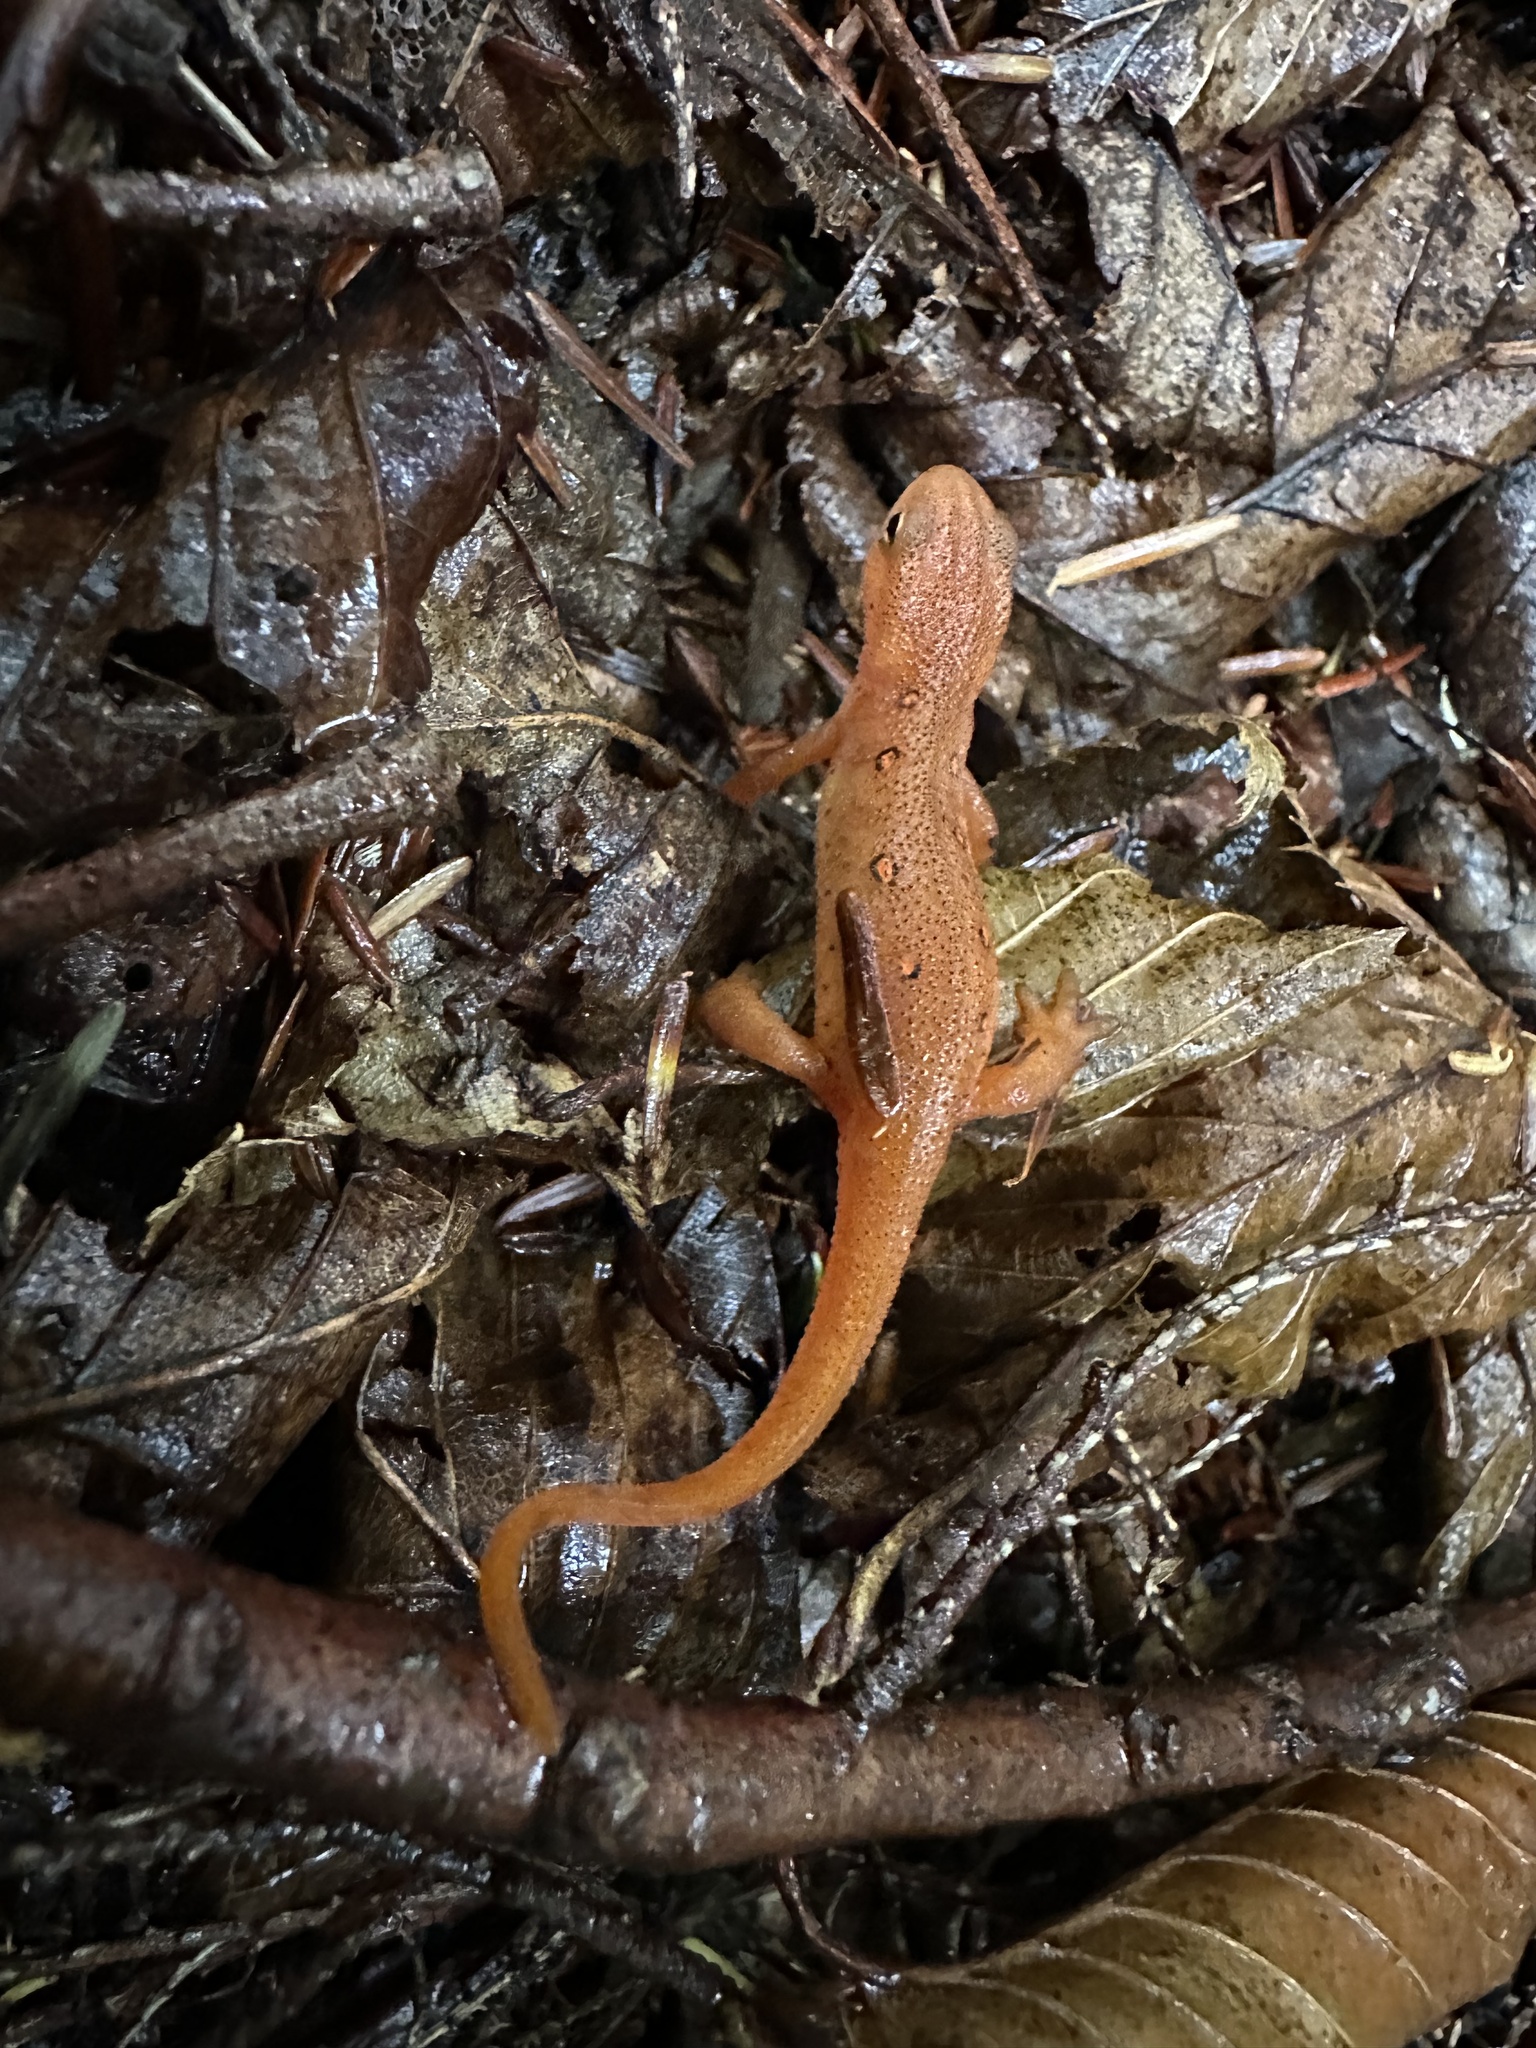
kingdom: Animalia
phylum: Chordata
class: Amphibia
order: Caudata
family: Salamandridae
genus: Notophthalmus
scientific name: Notophthalmus viridescens
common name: Eastern newt
